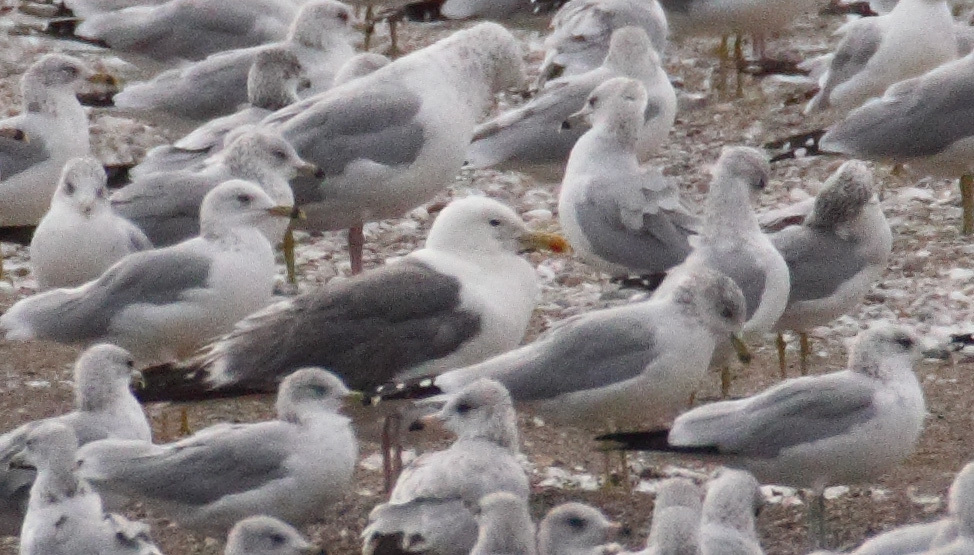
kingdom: Animalia
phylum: Chordata
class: Aves
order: Charadriiformes
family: Laridae
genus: Larus
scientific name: Larus vegae
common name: Vega gull
